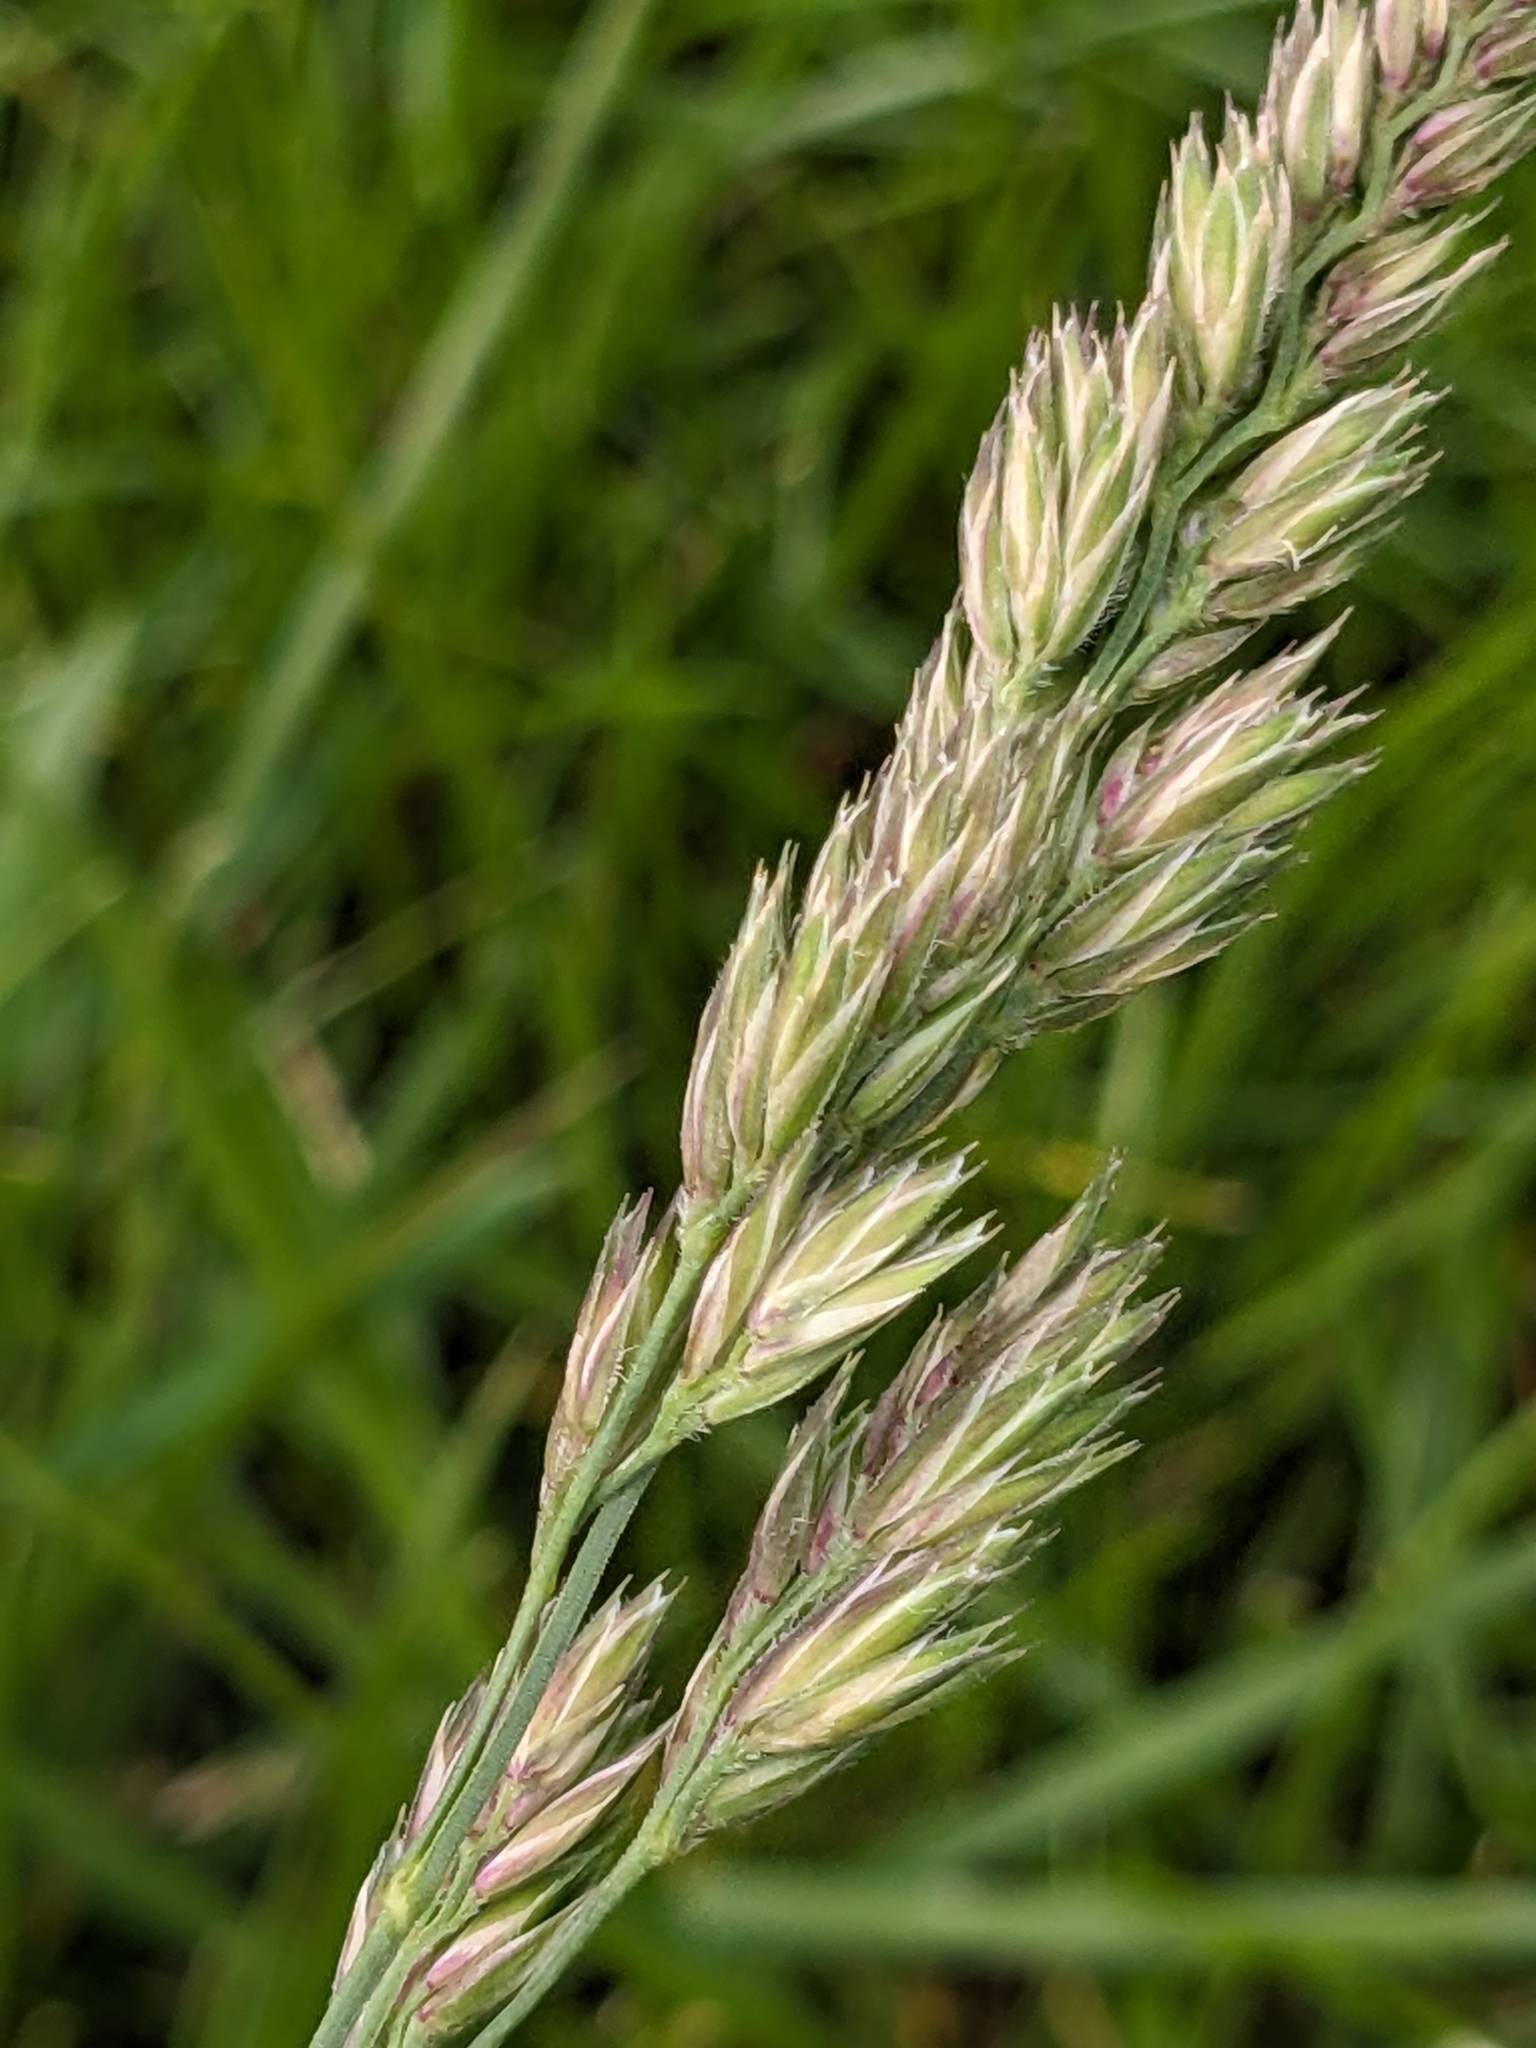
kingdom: Plantae
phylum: Tracheophyta
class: Liliopsida
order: Poales
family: Poaceae
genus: Dactylis
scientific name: Dactylis glomerata
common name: Orchardgrass
